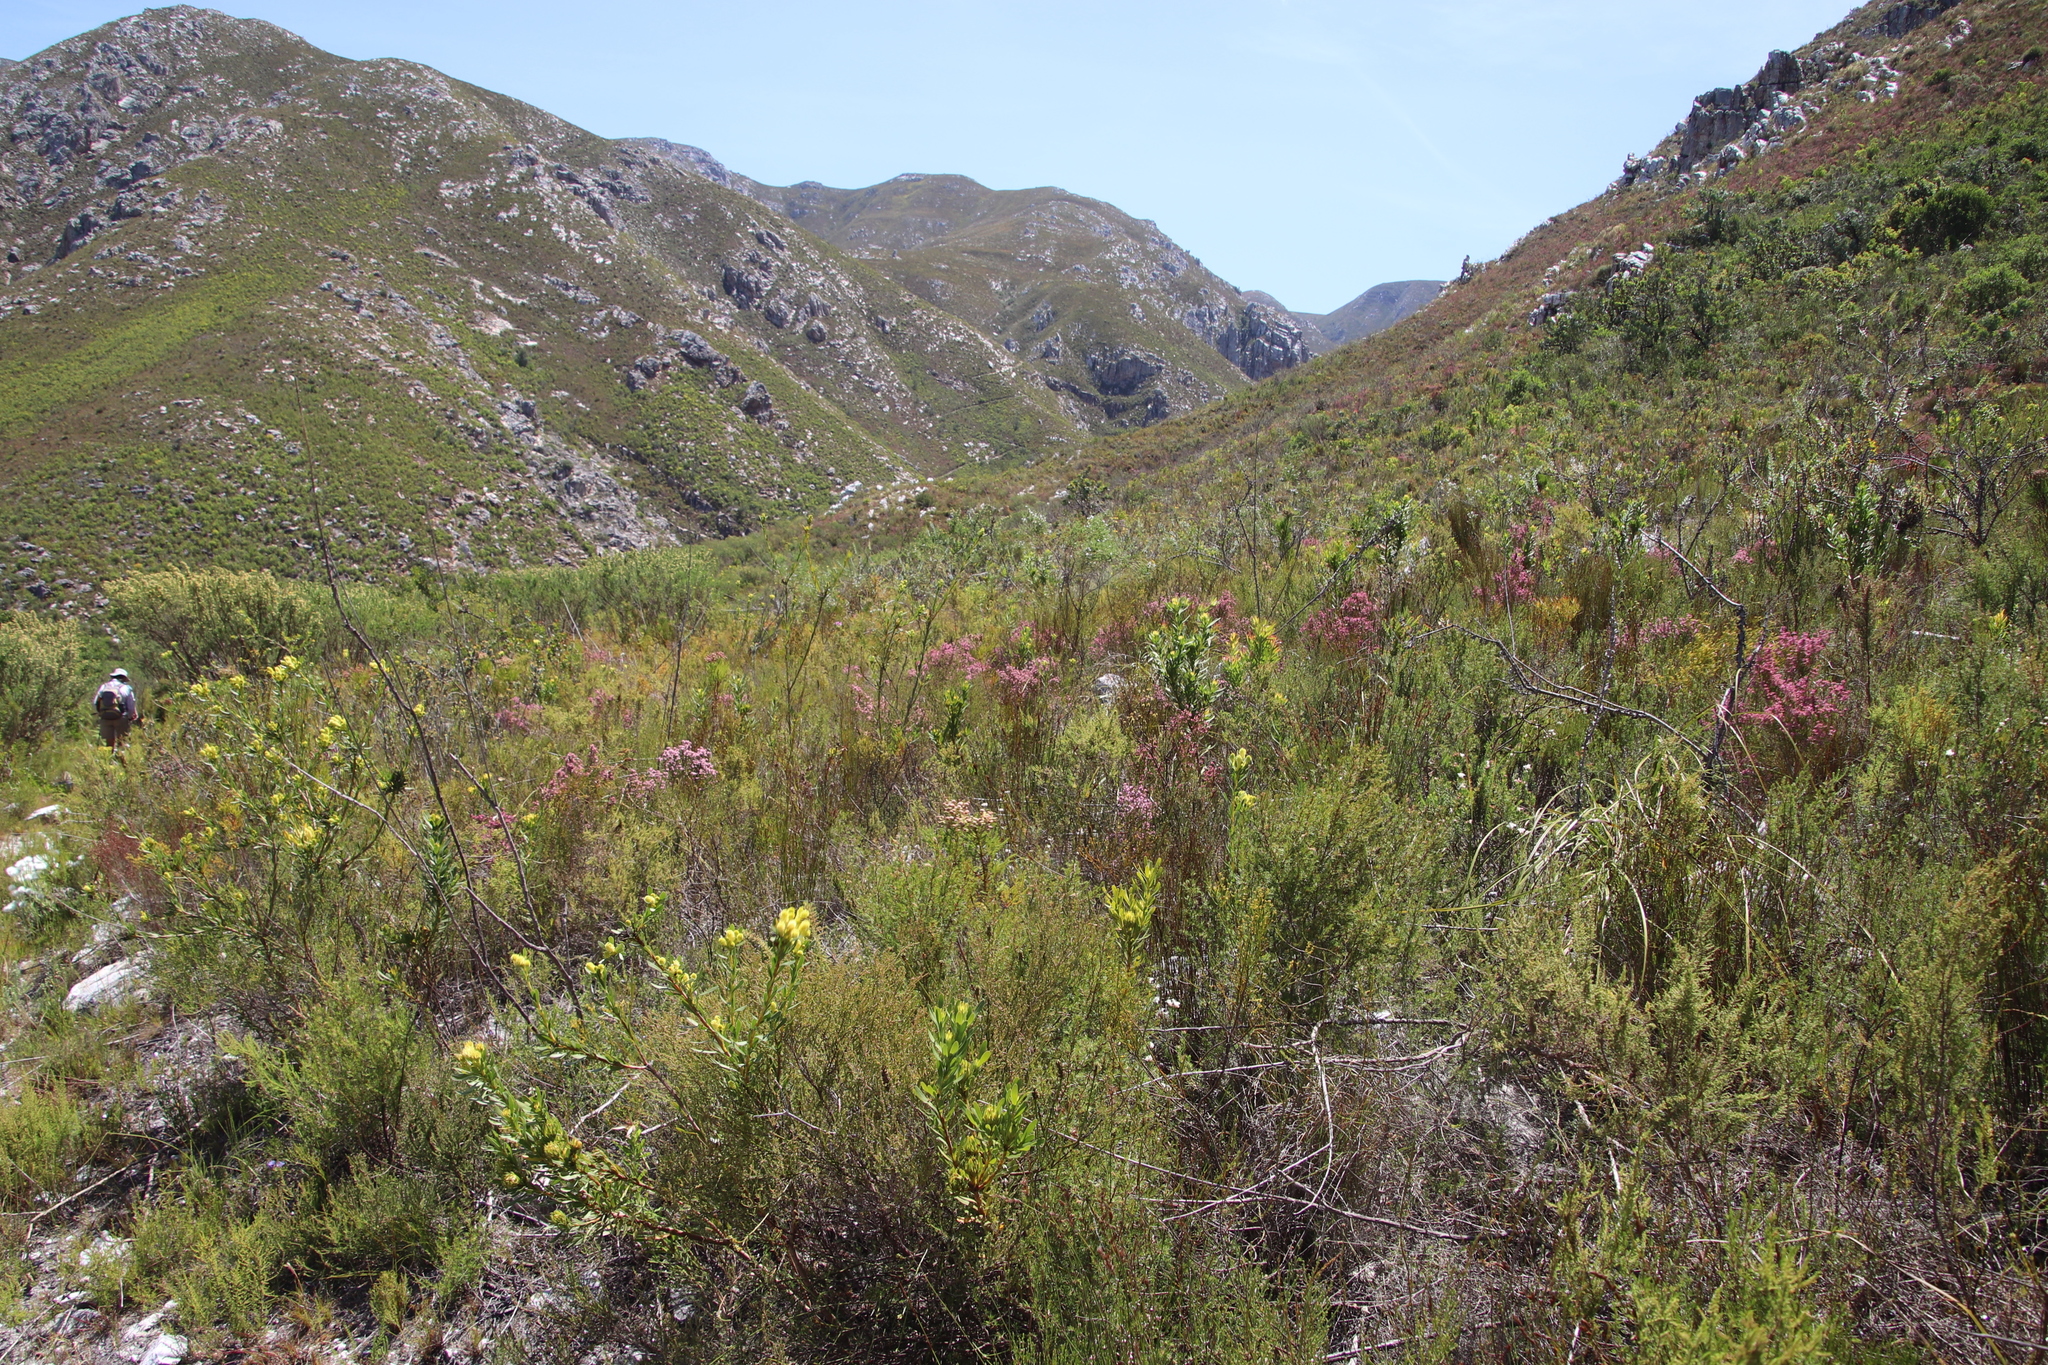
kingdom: Plantae
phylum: Tracheophyta
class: Magnoliopsida
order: Proteales
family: Proteaceae
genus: Aulax
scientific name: Aulax umbellata
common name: Broad-leaf featherbush
